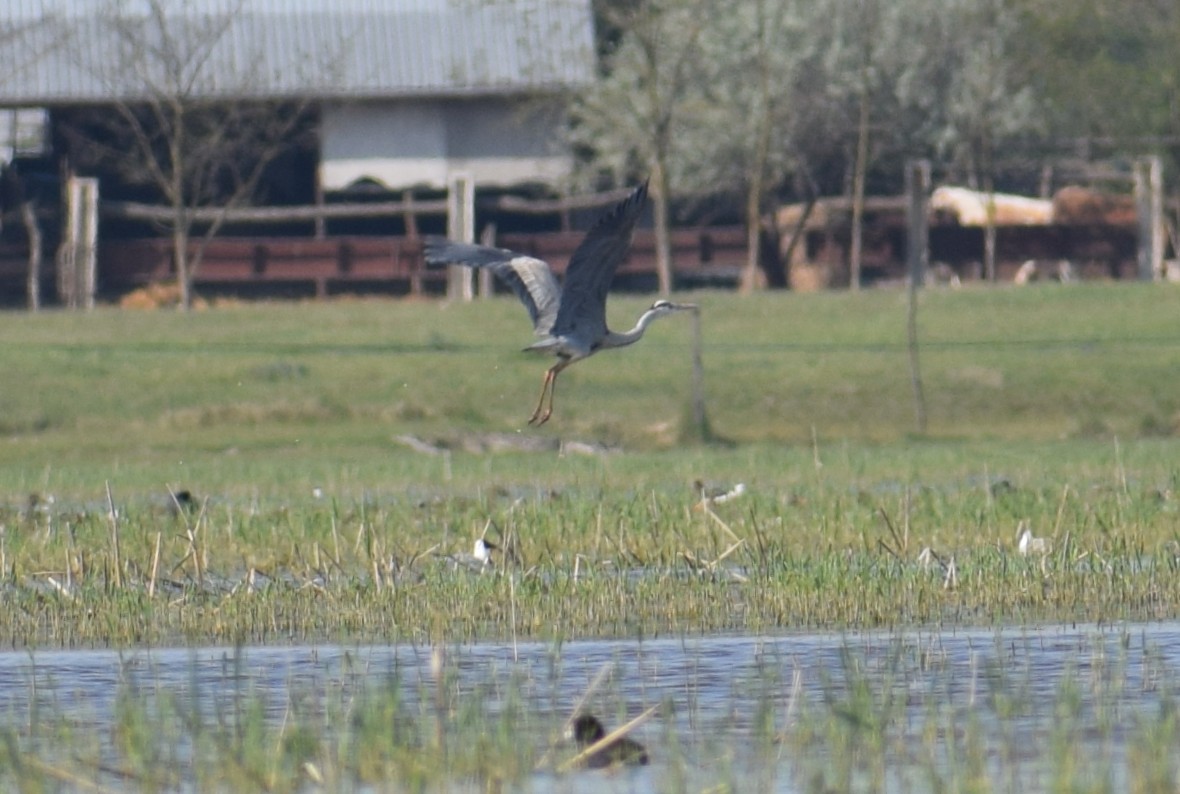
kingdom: Animalia
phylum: Chordata
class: Aves
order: Pelecaniformes
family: Ardeidae
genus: Ardea
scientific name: Ardea cinerea
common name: Grey heron
